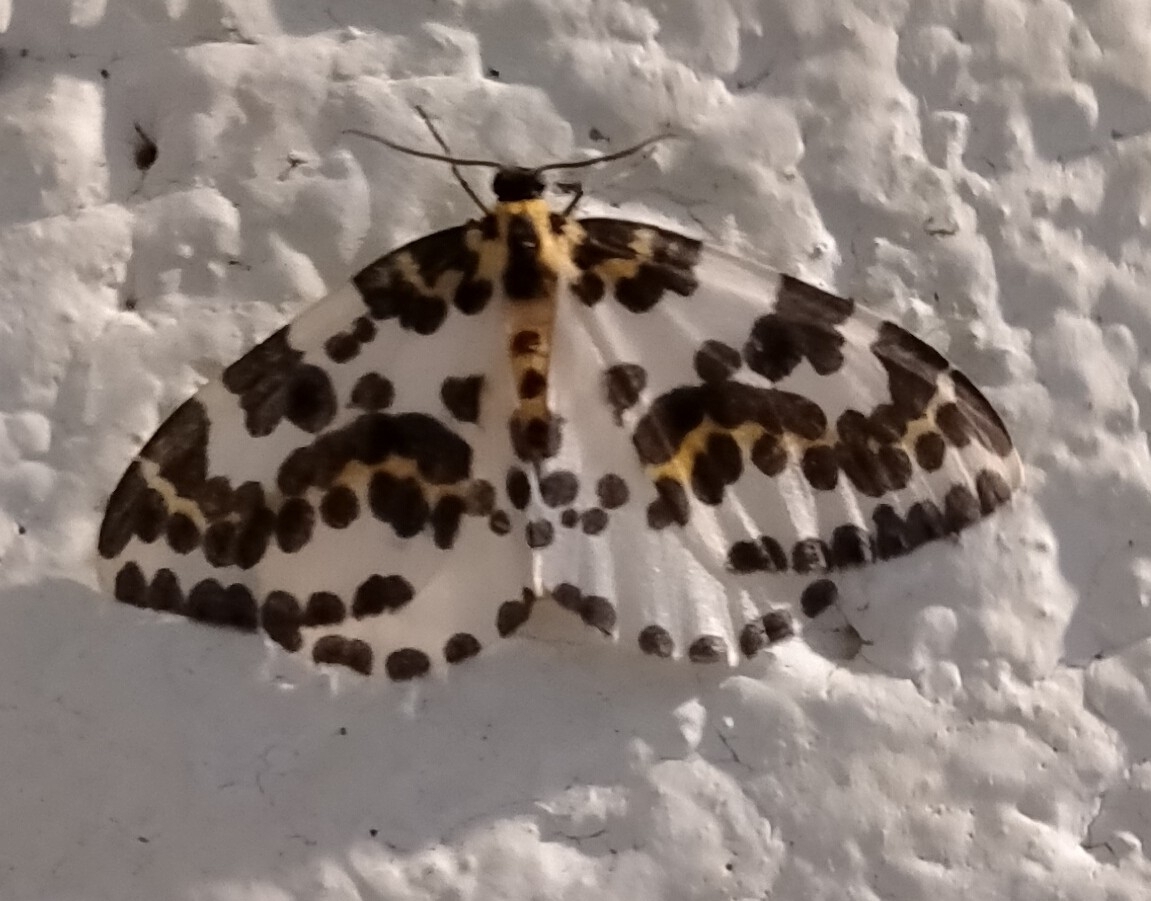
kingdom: Animalia
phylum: Arthropoda
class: Insecta
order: Lepidoptera
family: Geometridae
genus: Abraxas
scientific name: Abraxas grossulariata
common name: Magpie
